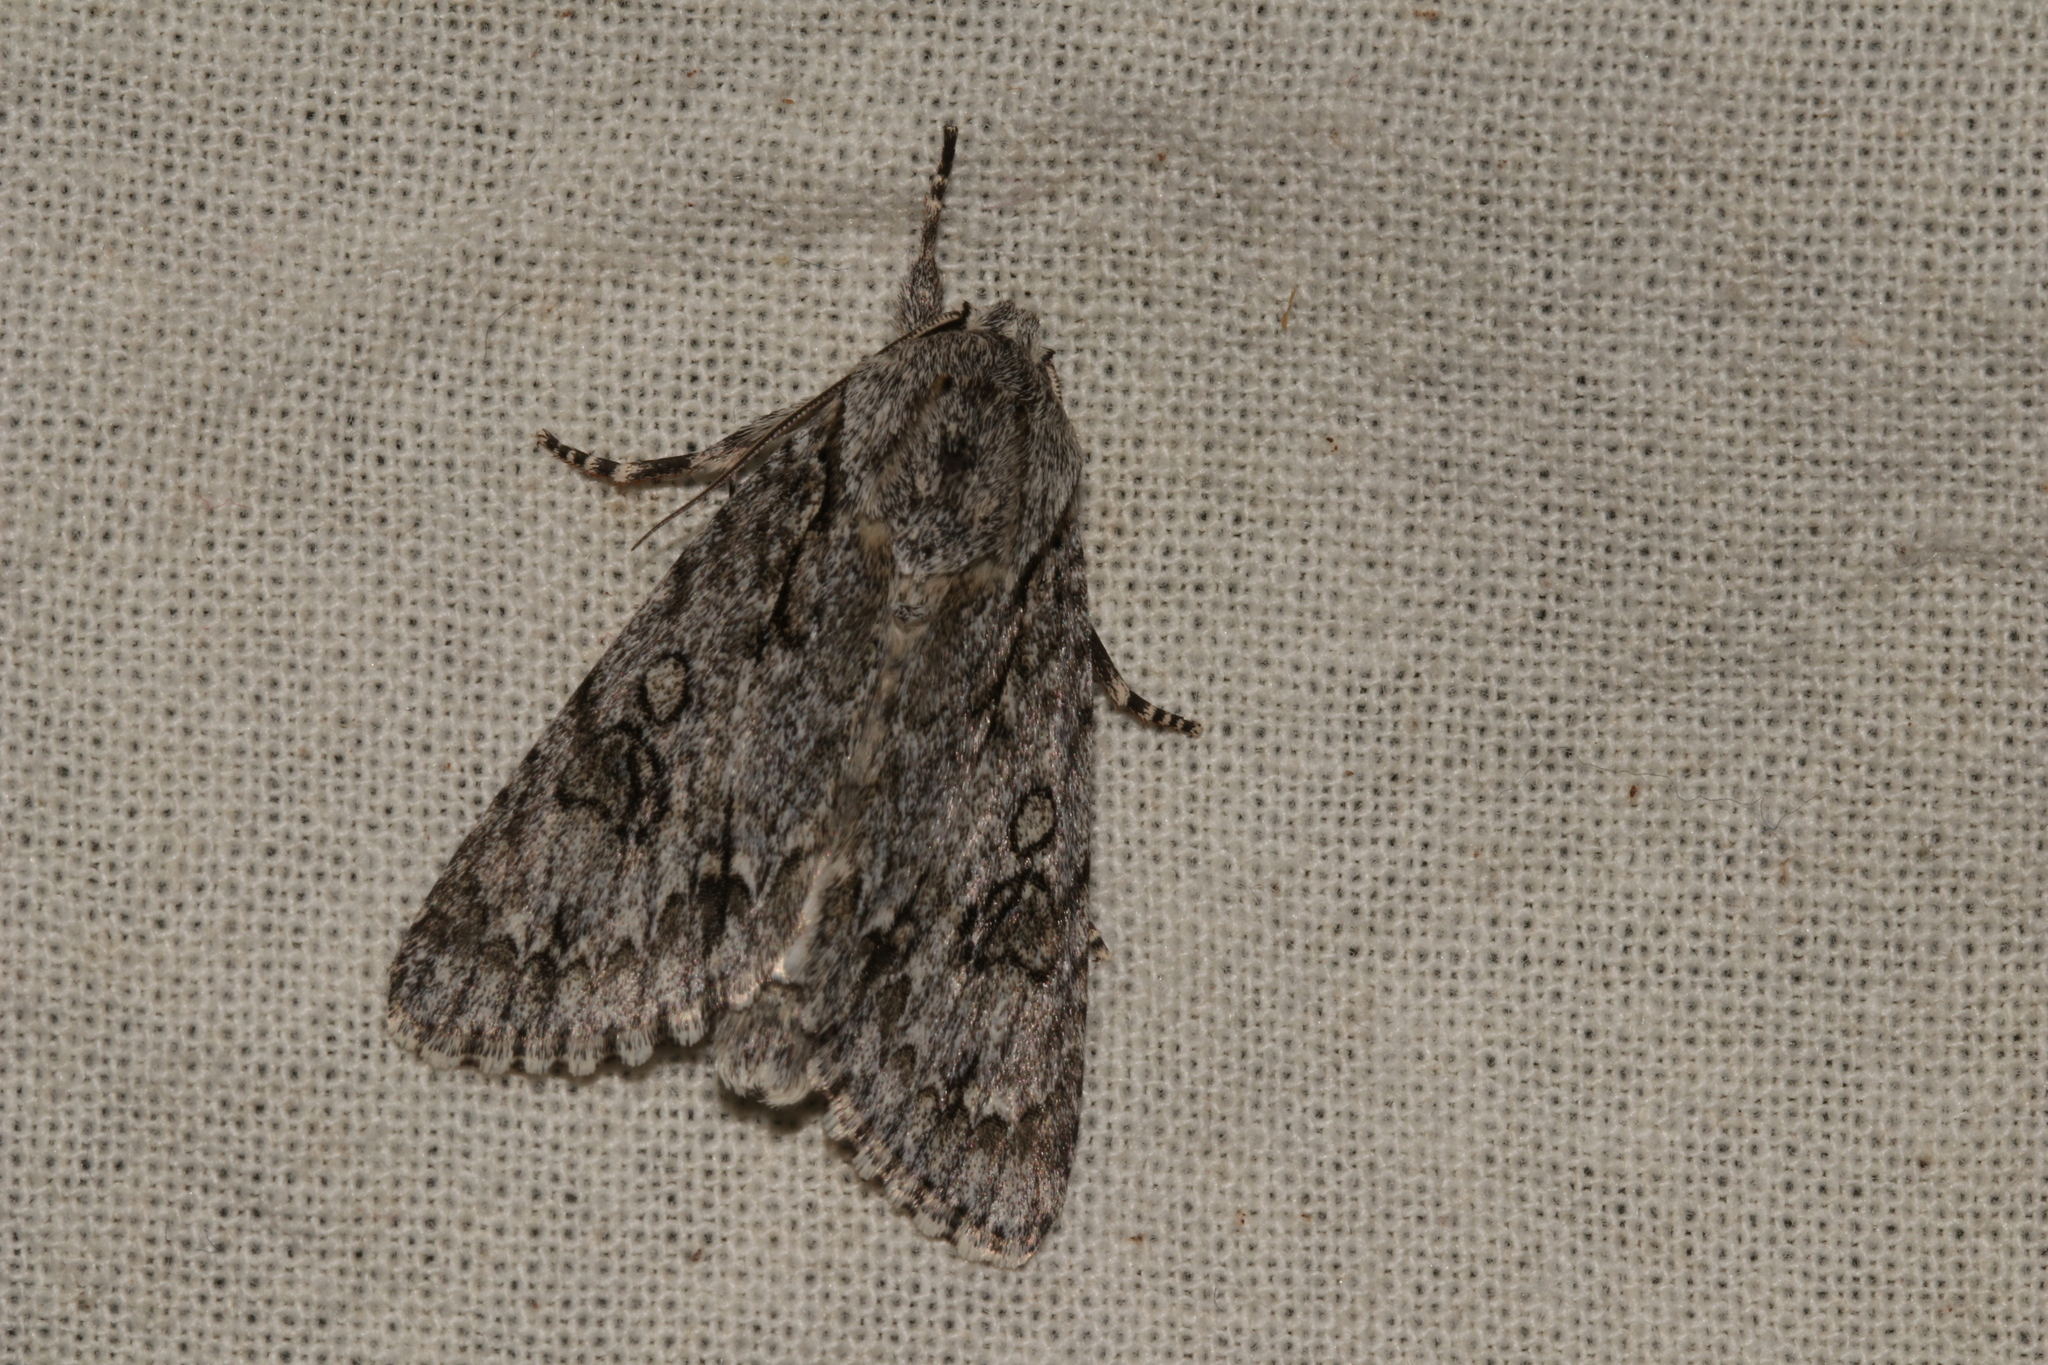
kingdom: Animalia
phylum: Arthropoda
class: Insecta
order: Lepidoptera
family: Noctuidae
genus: Acronicta
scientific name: Acronicta aceris
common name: Sycamore
